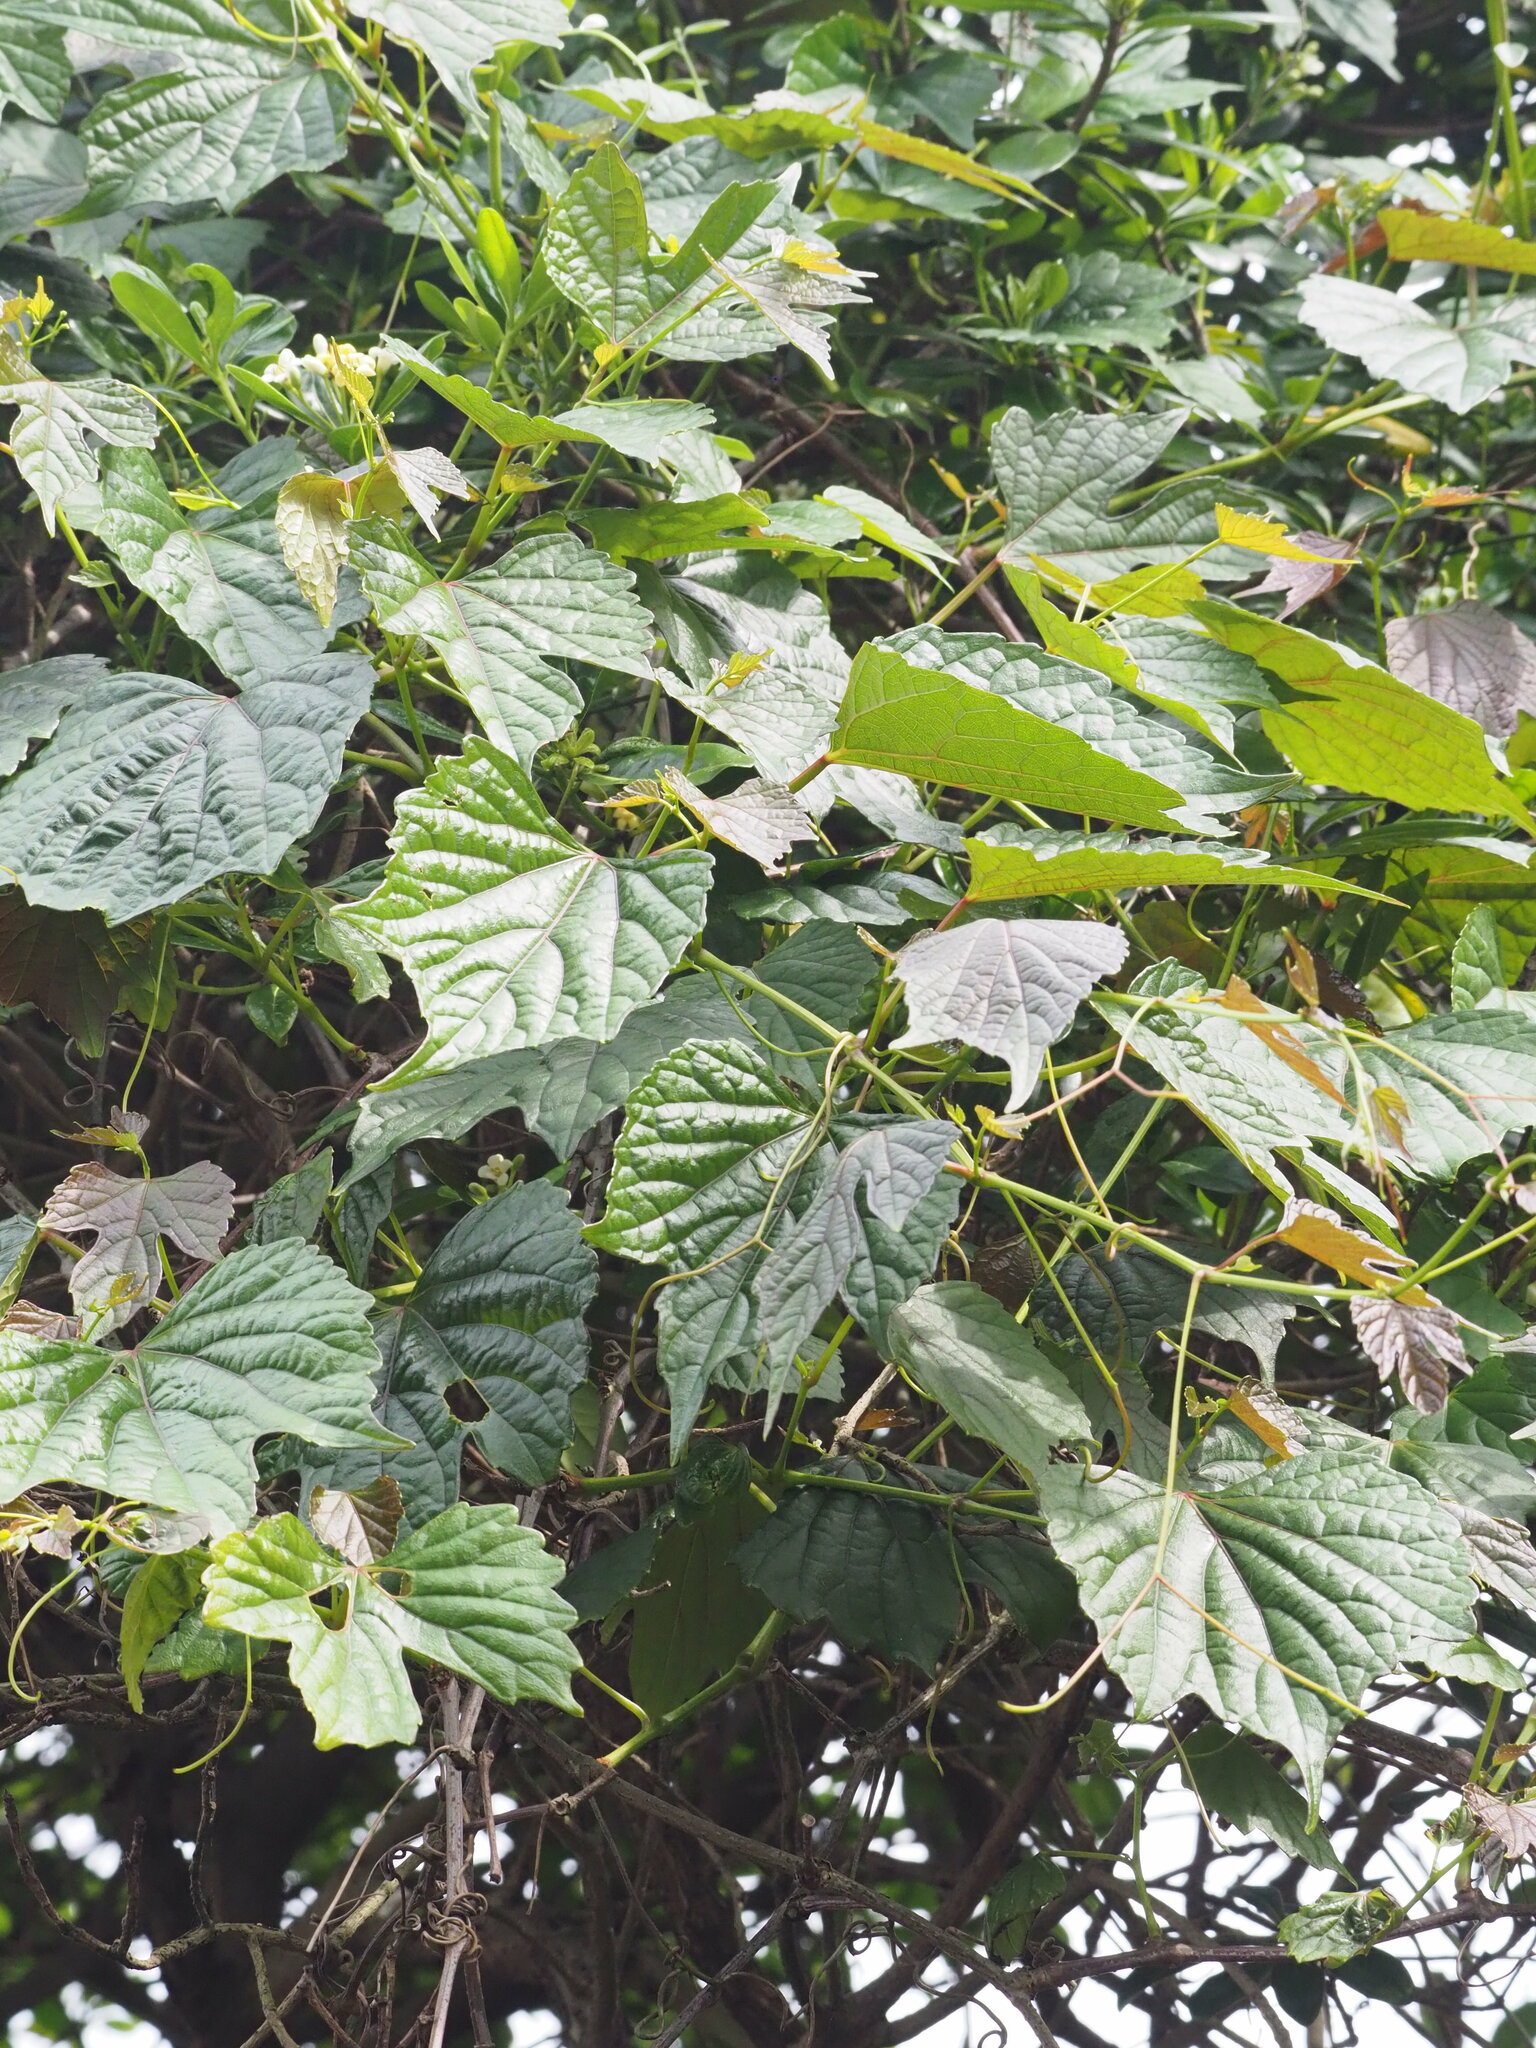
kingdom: Plantae
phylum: Tracheophyta
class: Magnoliopsida
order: Vitales
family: Vitaceae
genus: Ampelopsis
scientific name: Ampelopsis glandulosa
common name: Amur peppervine
